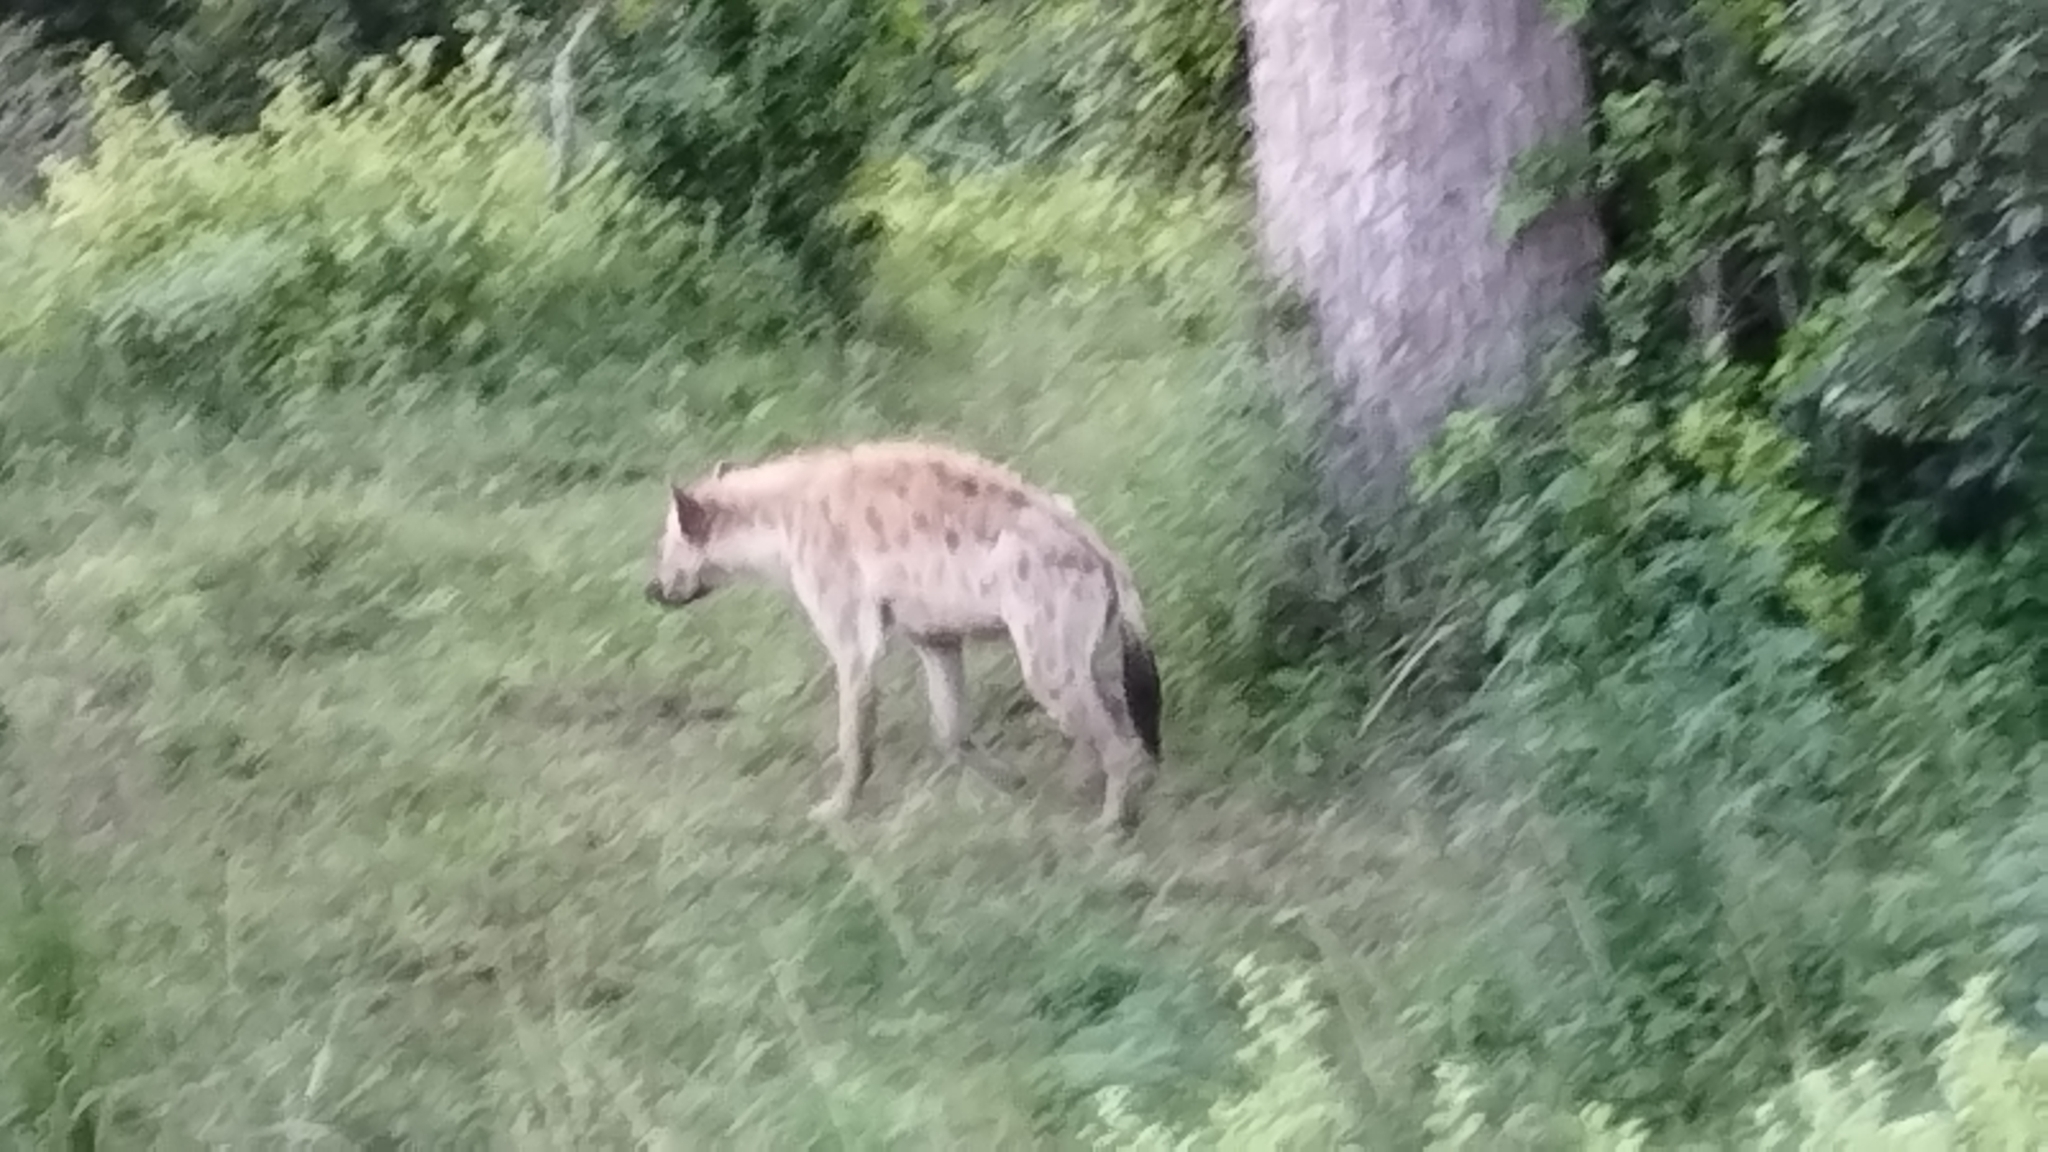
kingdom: Animalia
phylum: Chordata
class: Mammalia
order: Carnivora
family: Hyaenidae
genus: Crocuta
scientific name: Crocuta crocuta
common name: Spotted hyaena
